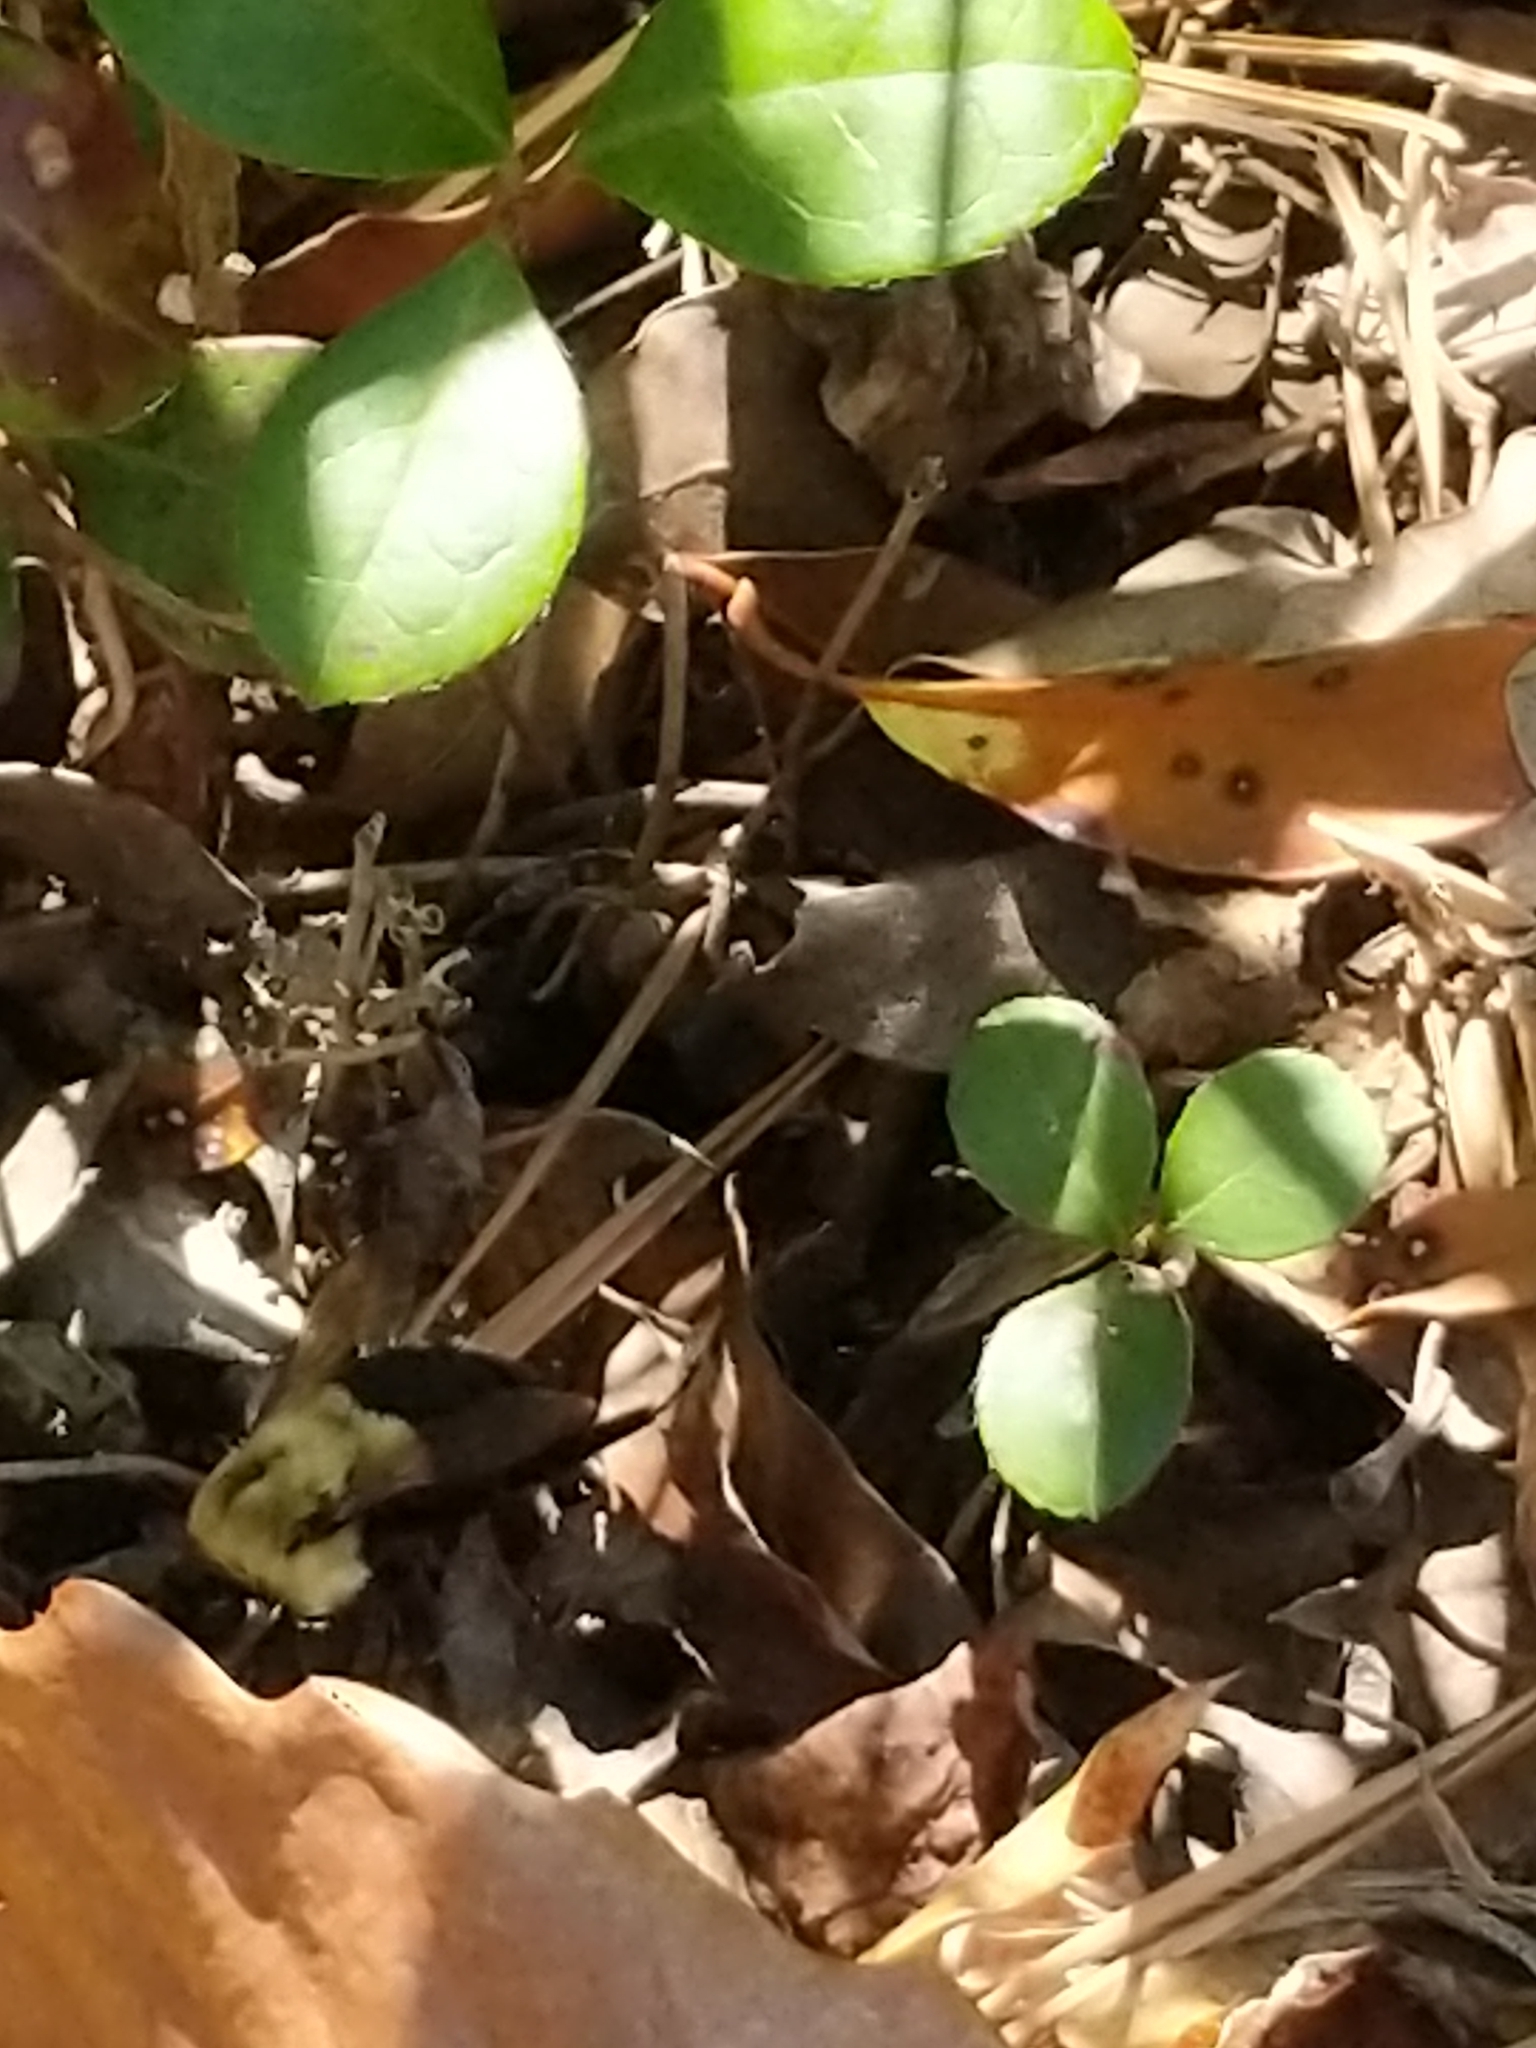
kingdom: Animalia
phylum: Arthropoda
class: Insecta
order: Hymenoptera
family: Apidae
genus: Bombus
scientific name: Bombus impatiens
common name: Common eastern bumble bee
